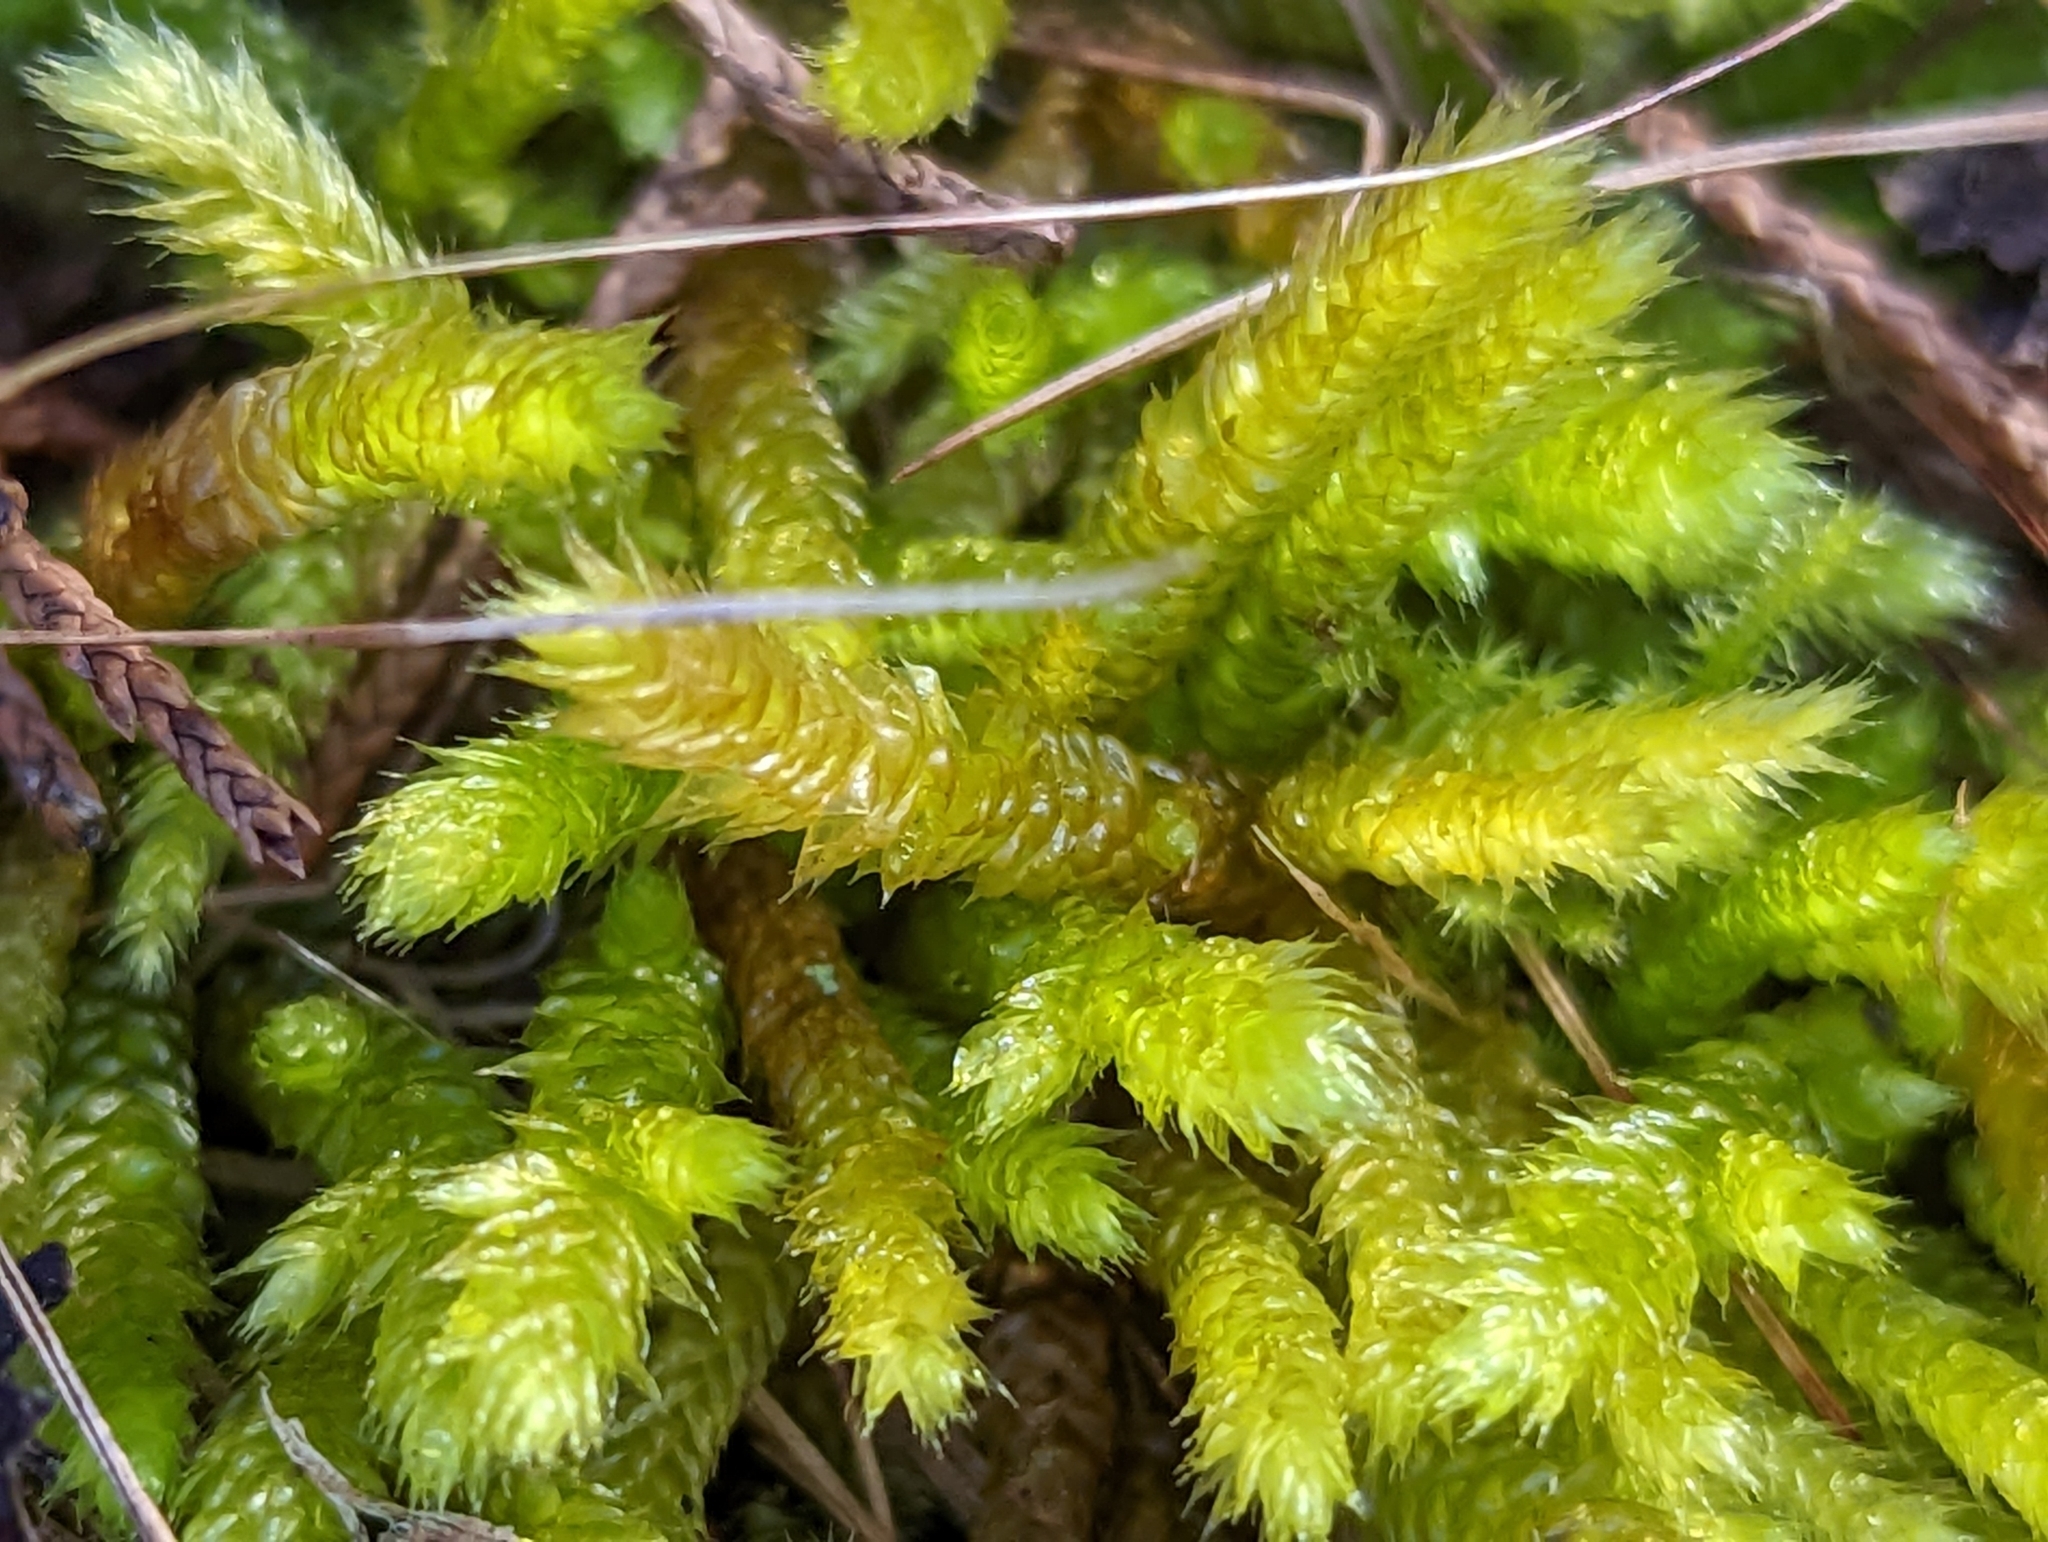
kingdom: Plantae
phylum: Bryophyta
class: Bryopsida
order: Hypnales
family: Brachytheciaceae
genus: Bryoandersonia
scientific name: Bryoandersonia illecebra
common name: Spoon-leaved moss
